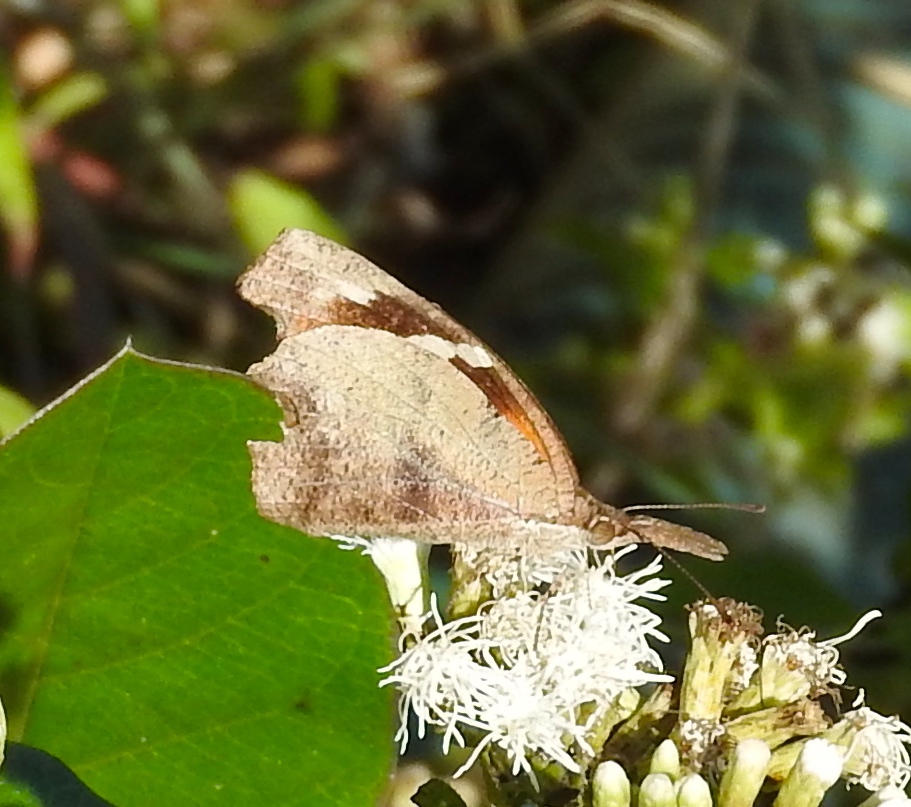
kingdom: Animalia
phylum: Arthropoda
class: Insecta
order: Lepidoptera
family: Nymphalidae
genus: Libytheana
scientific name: Libytheana carinenta
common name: American snout
